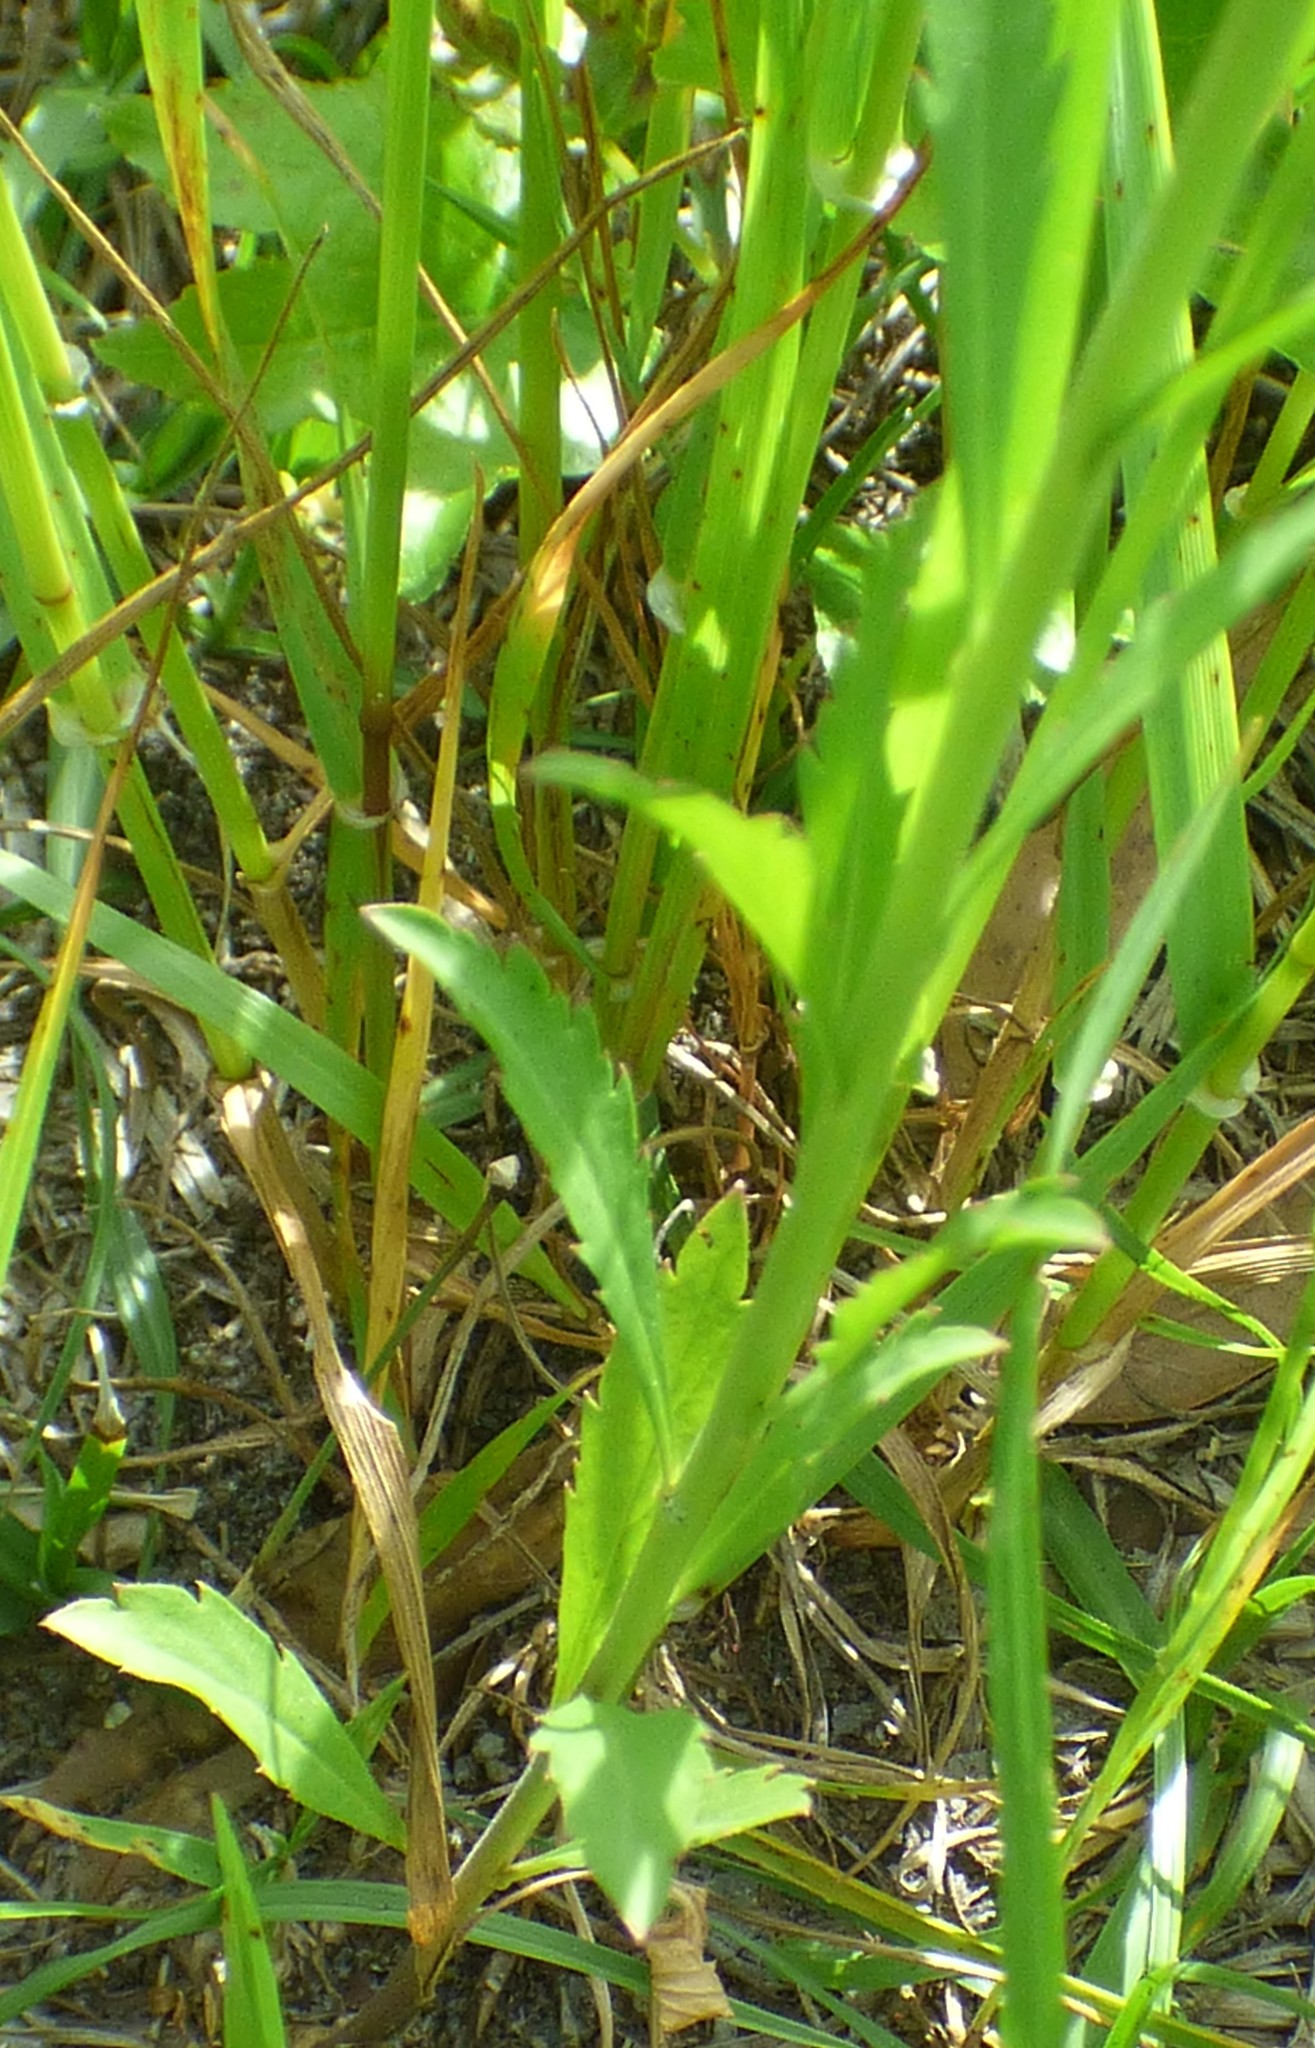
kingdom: Plantae
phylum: Tracheophyta
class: Magnoliopsida
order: Brassicales
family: Brassicaceae
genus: Lepidium
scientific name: Lepidium virginicum
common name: Least pepperwort
